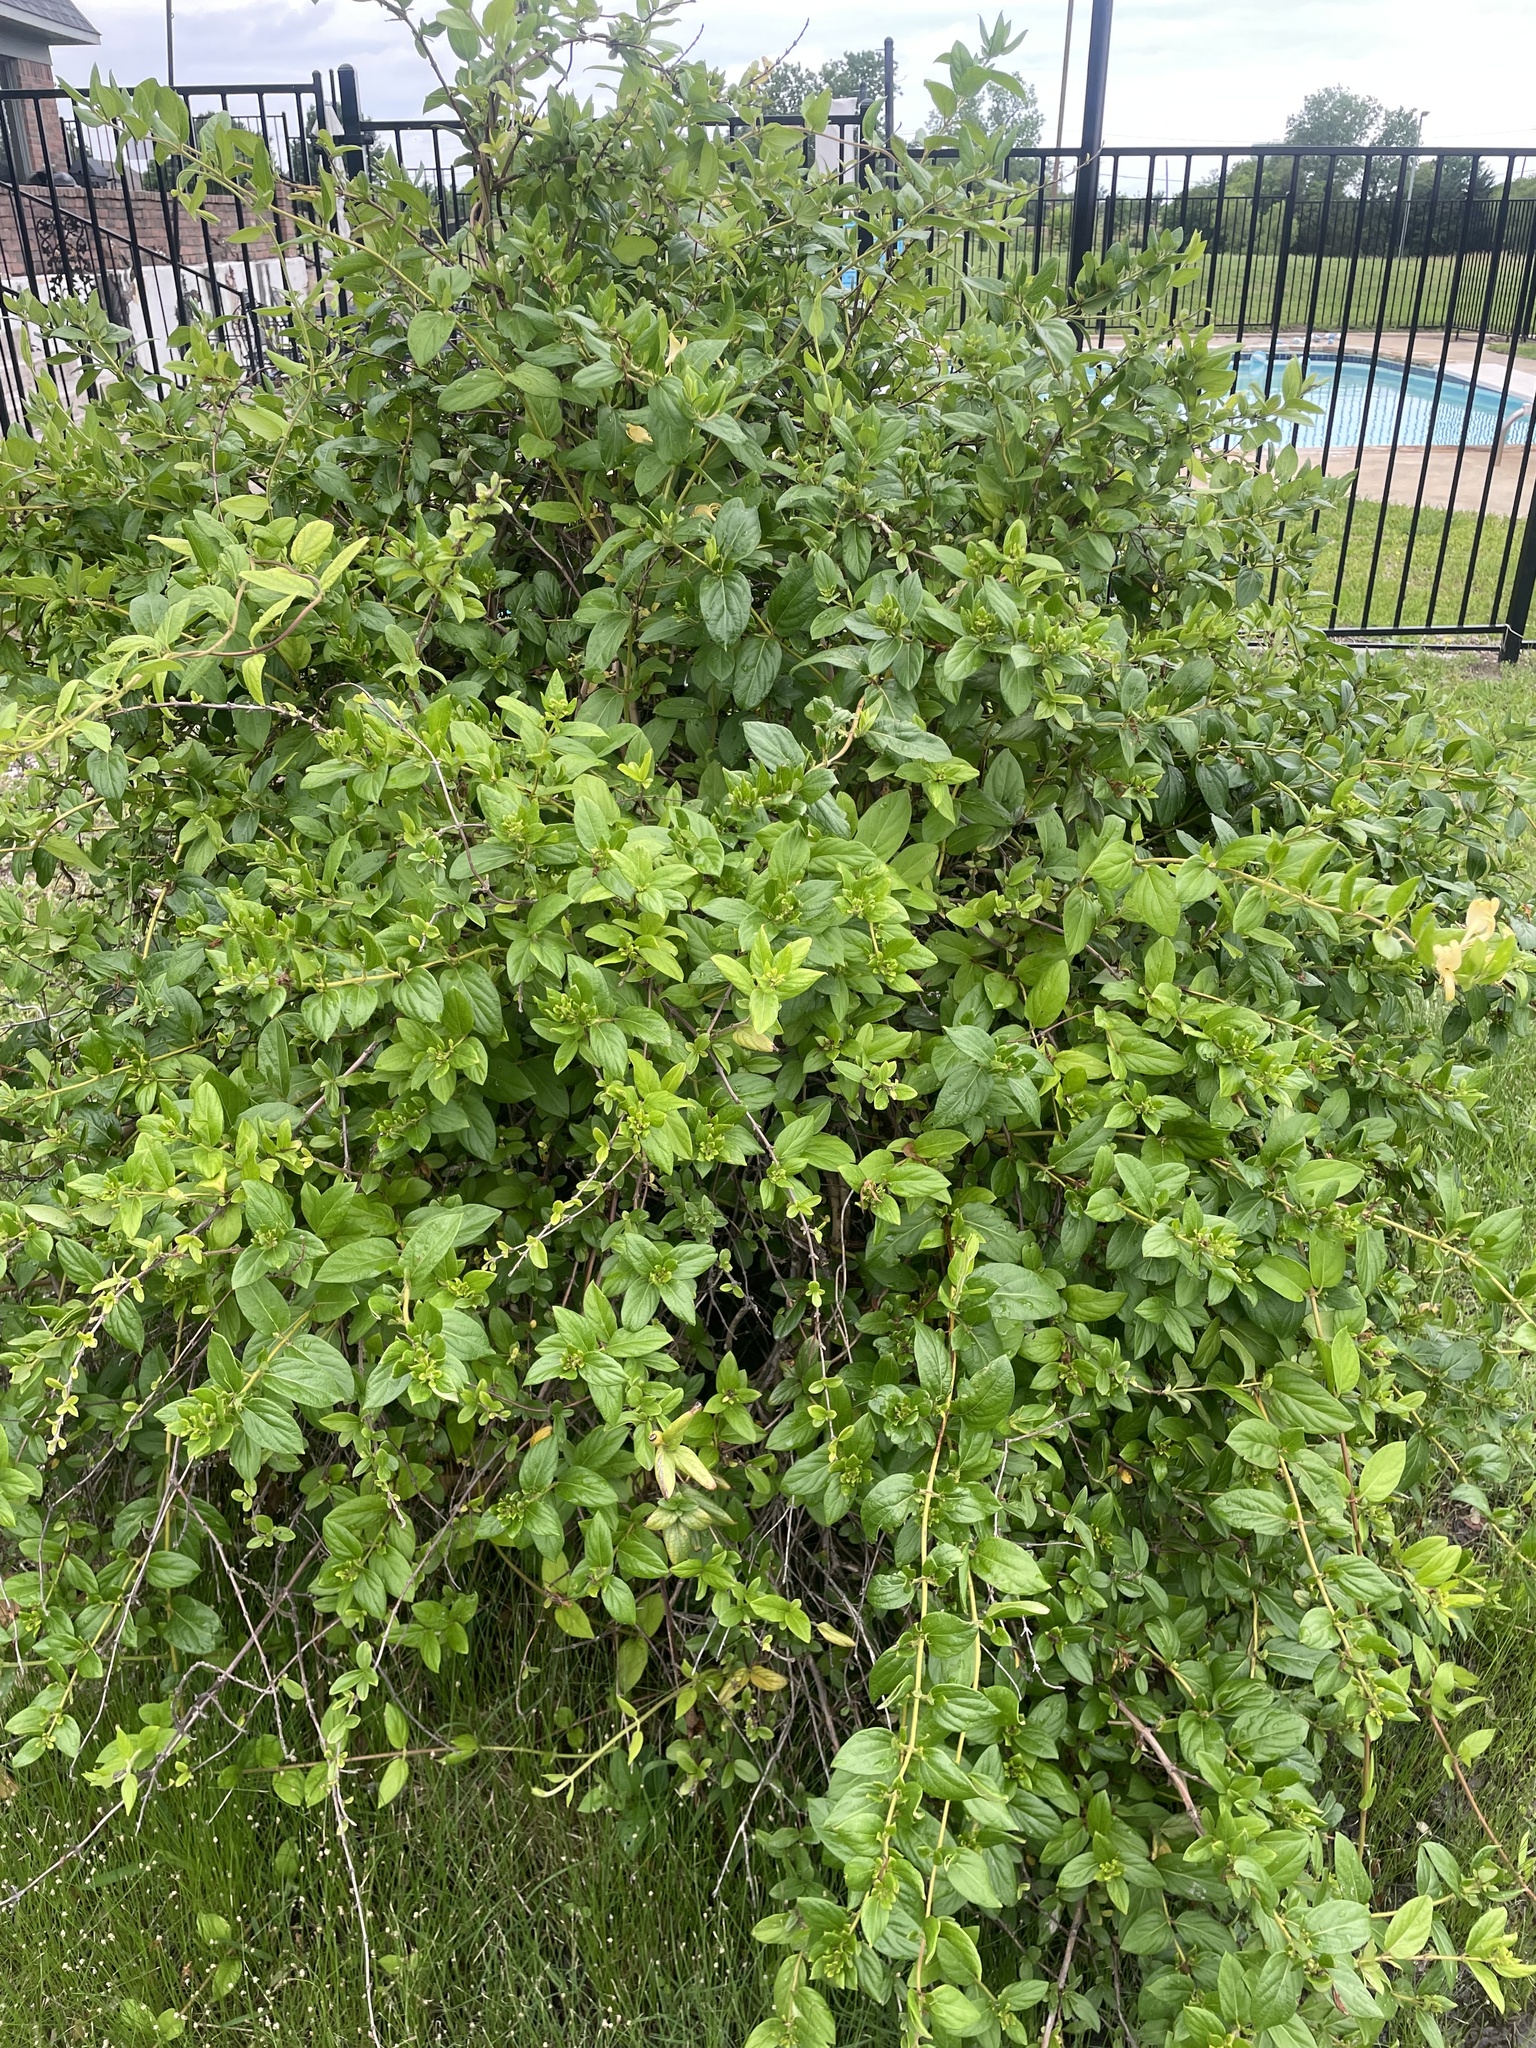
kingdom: Plantae
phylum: Tracheophyta
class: Magnoliopsida
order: Dipsacales
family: Caprifoliaceae
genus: Lonicera
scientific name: Lonicera japonica
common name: Japanese honeysuckle
